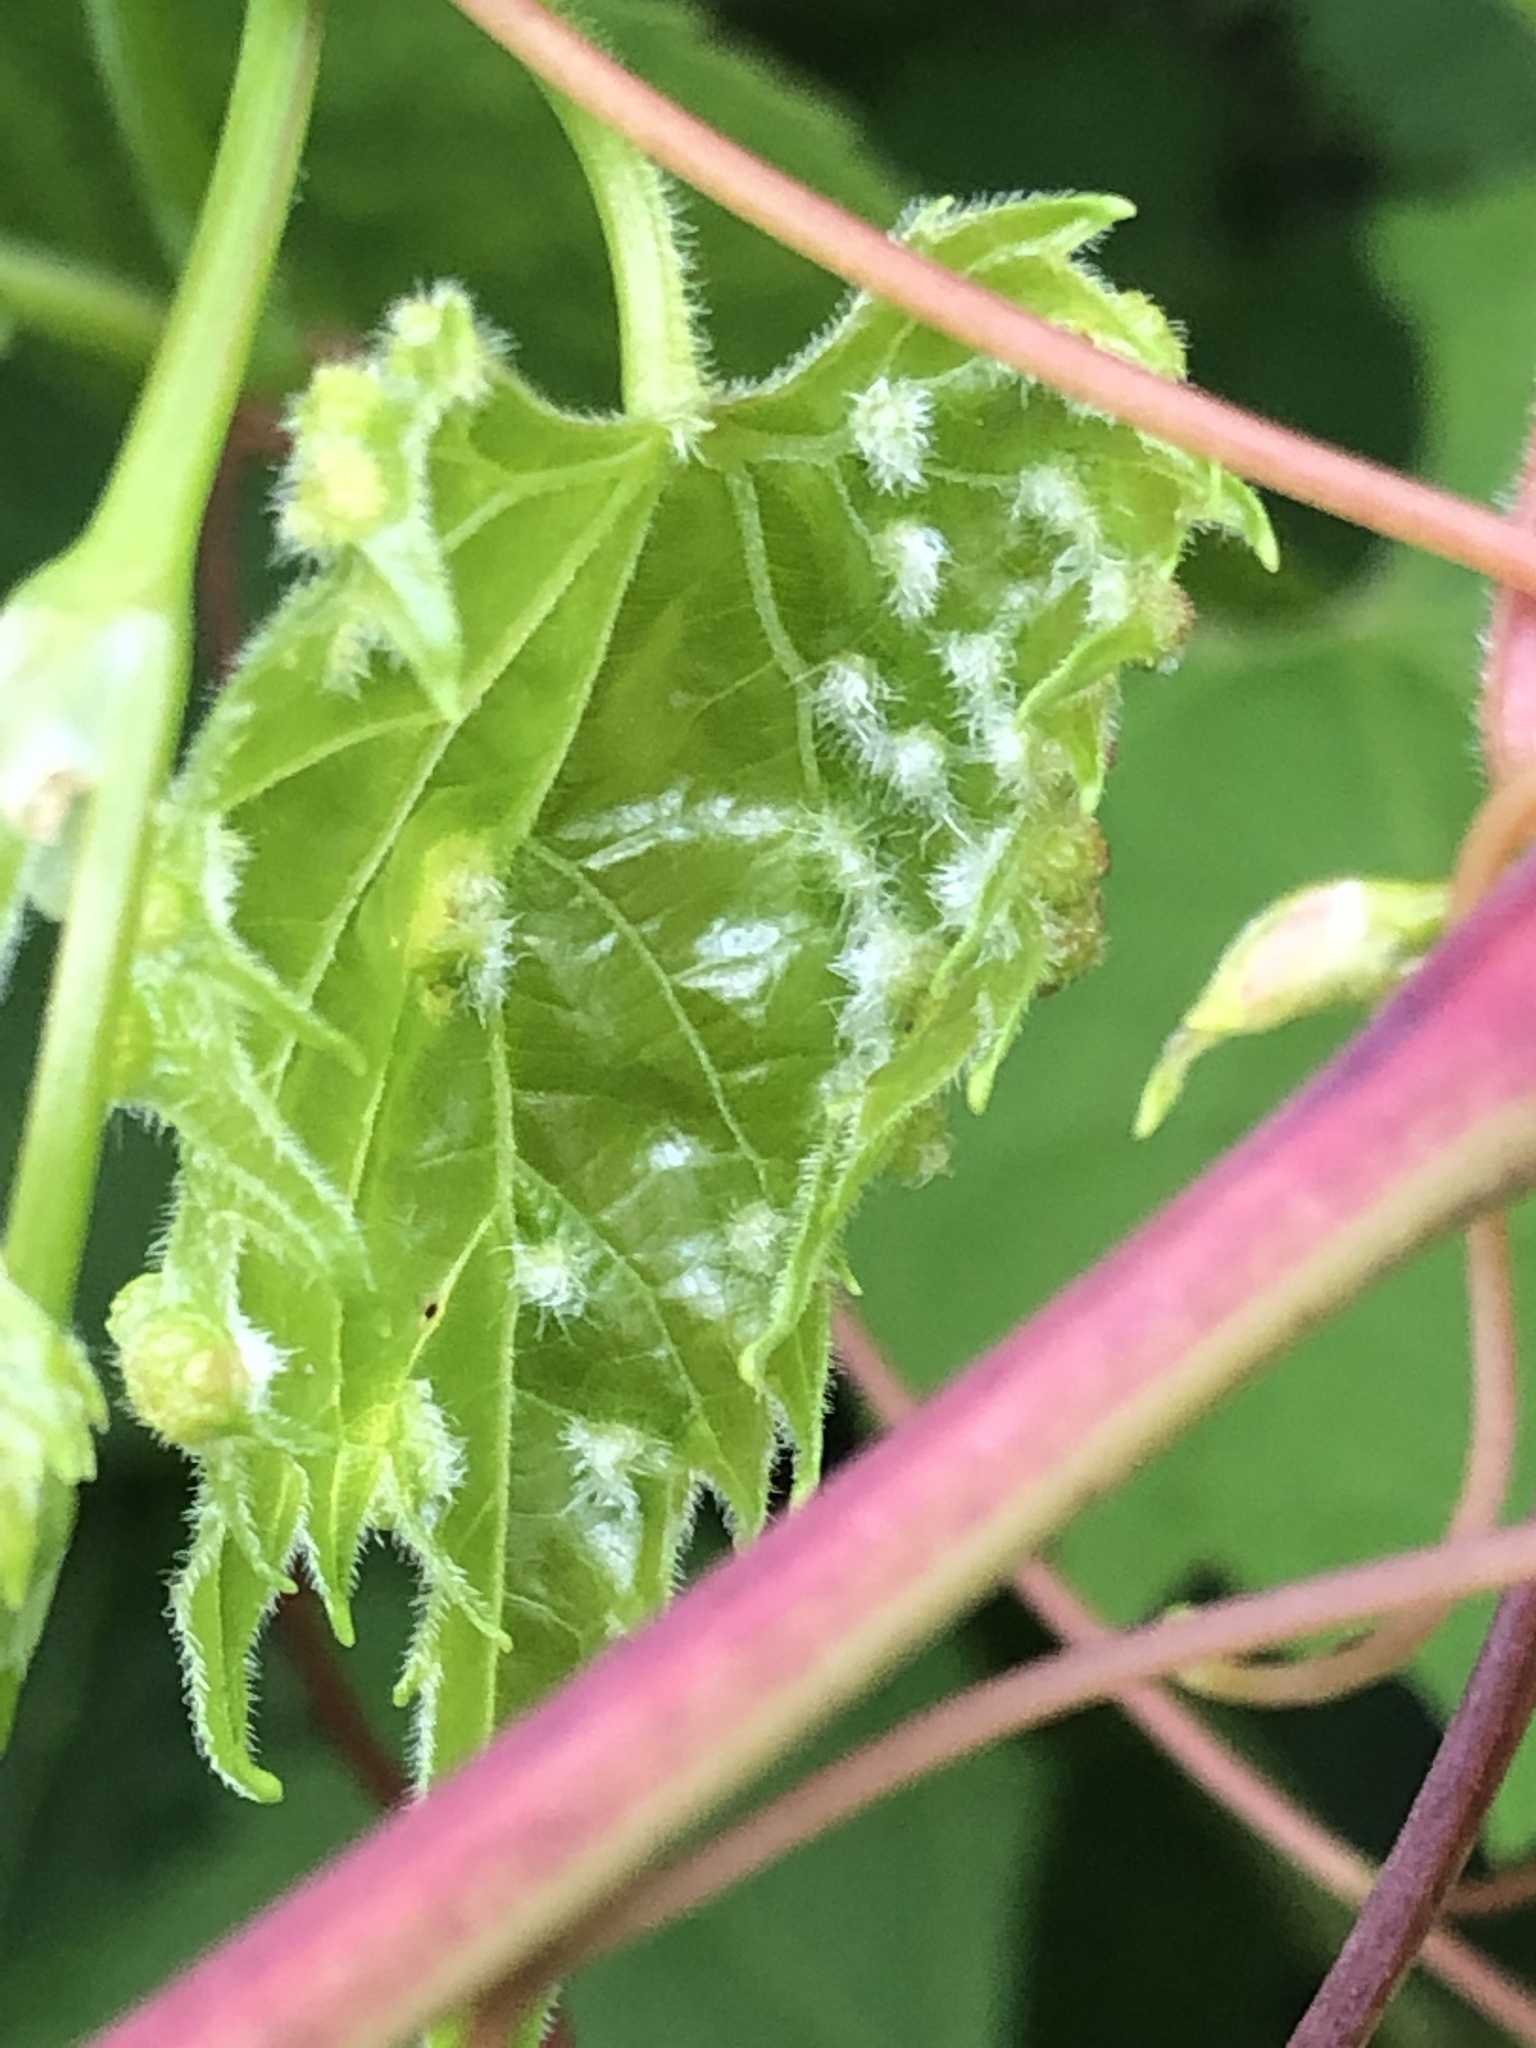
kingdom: Animalia
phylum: Arthropoda
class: Insecta
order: Hemiptera
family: Phylloxeridae
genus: Daktulosphaira
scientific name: Daktulosphaira vitifoliae
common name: Grape phylloxera
